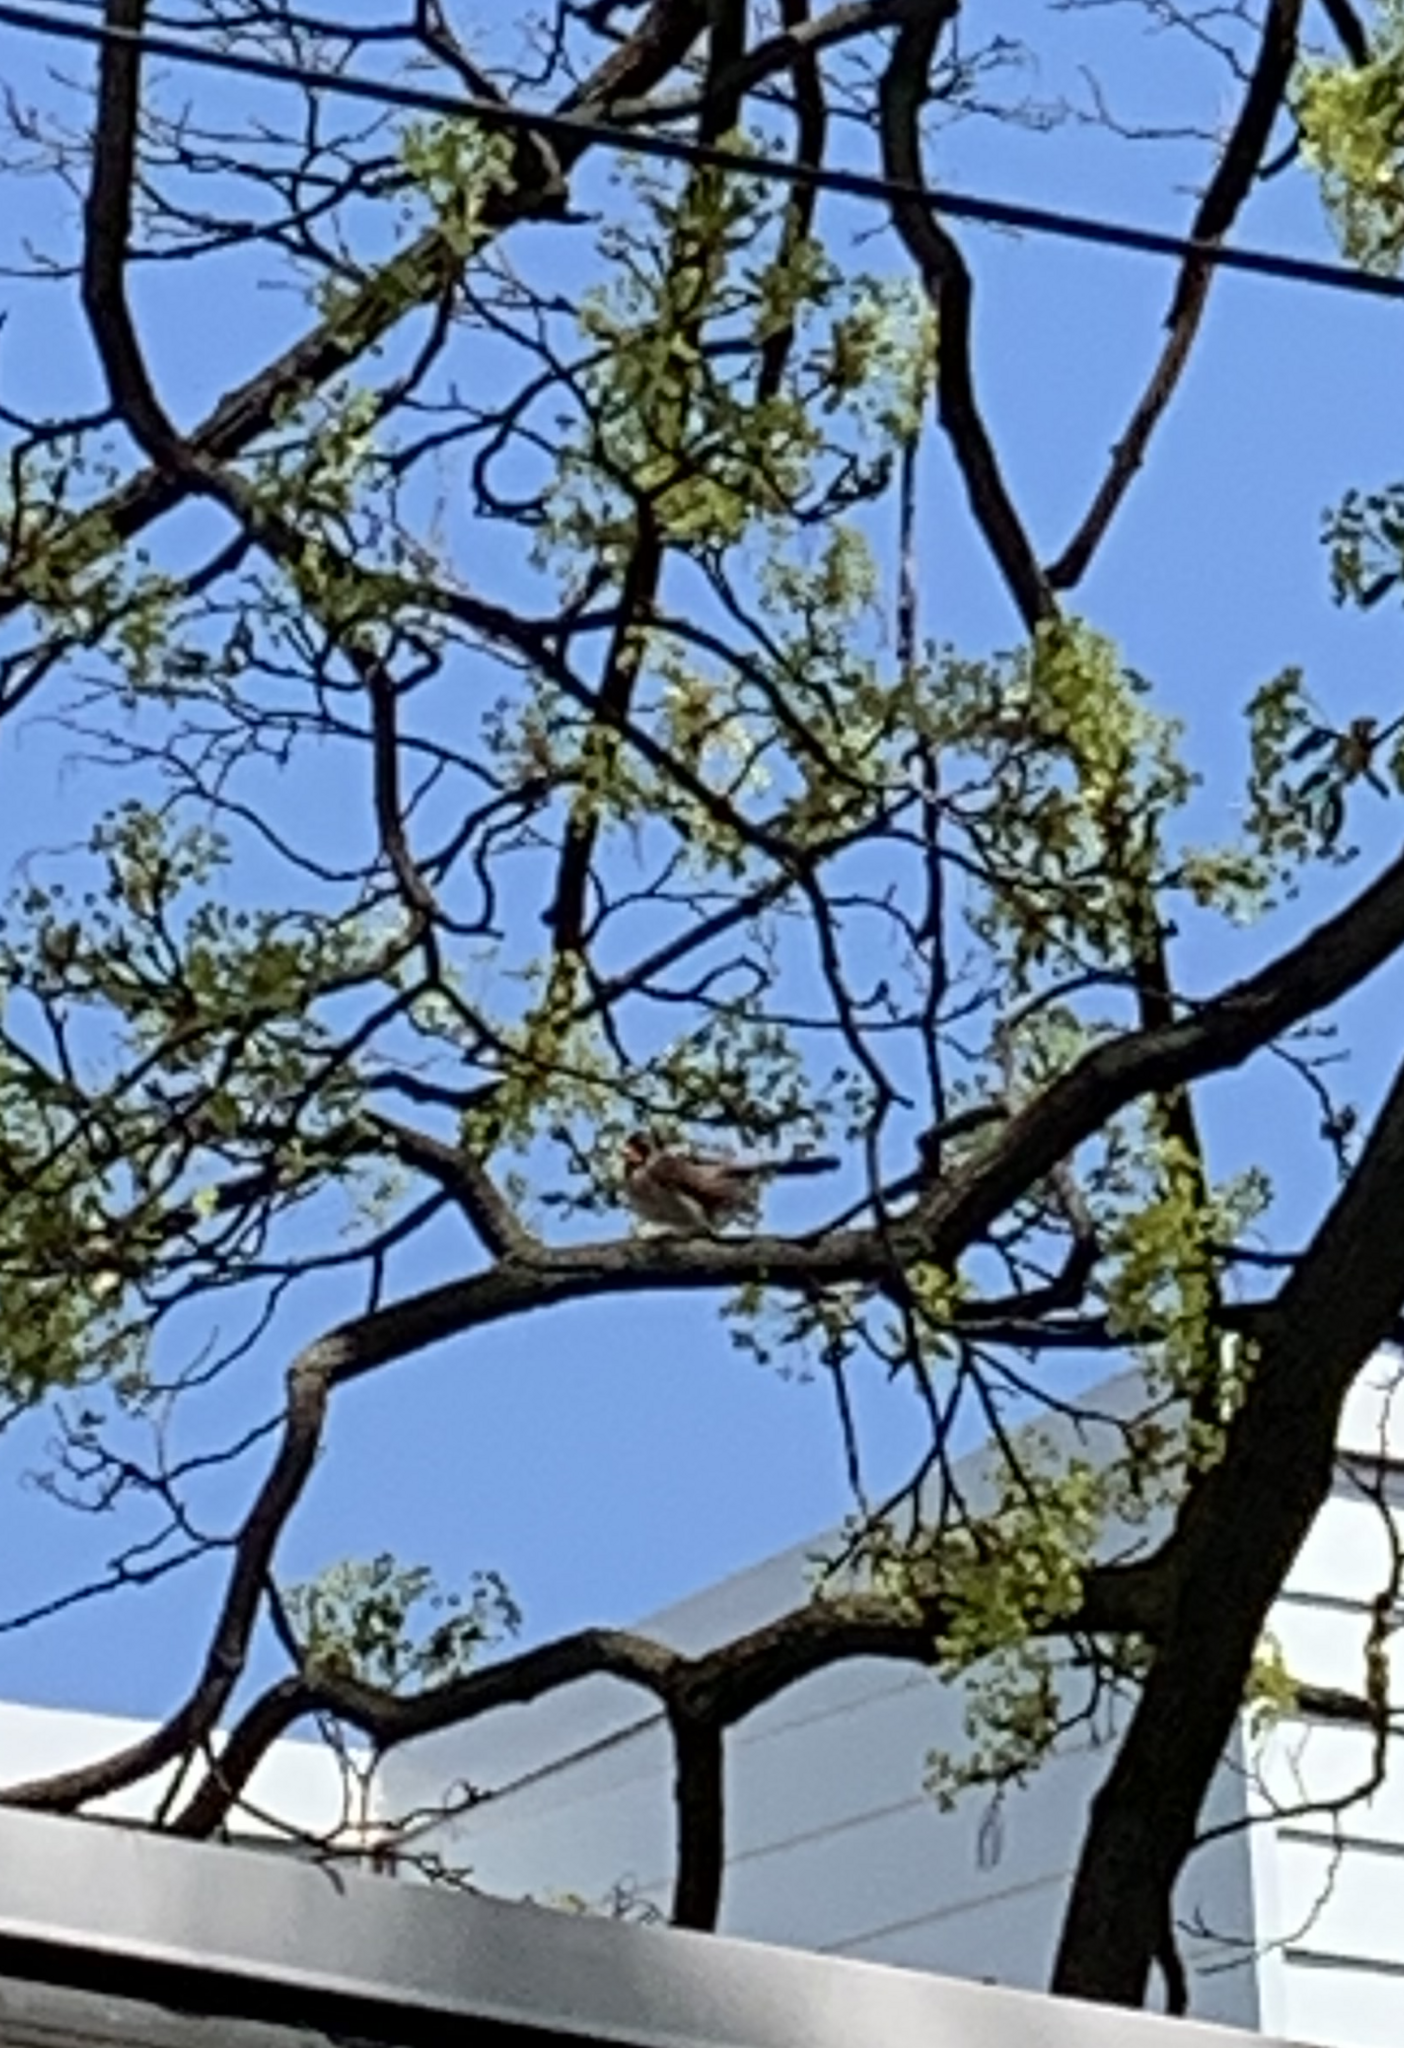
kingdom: Animalia
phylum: Chordata
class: Aves
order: Passeriformes
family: Cardinalidae
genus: Cardinalis
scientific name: Cardinalis cardinalis
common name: Northern cardinal
